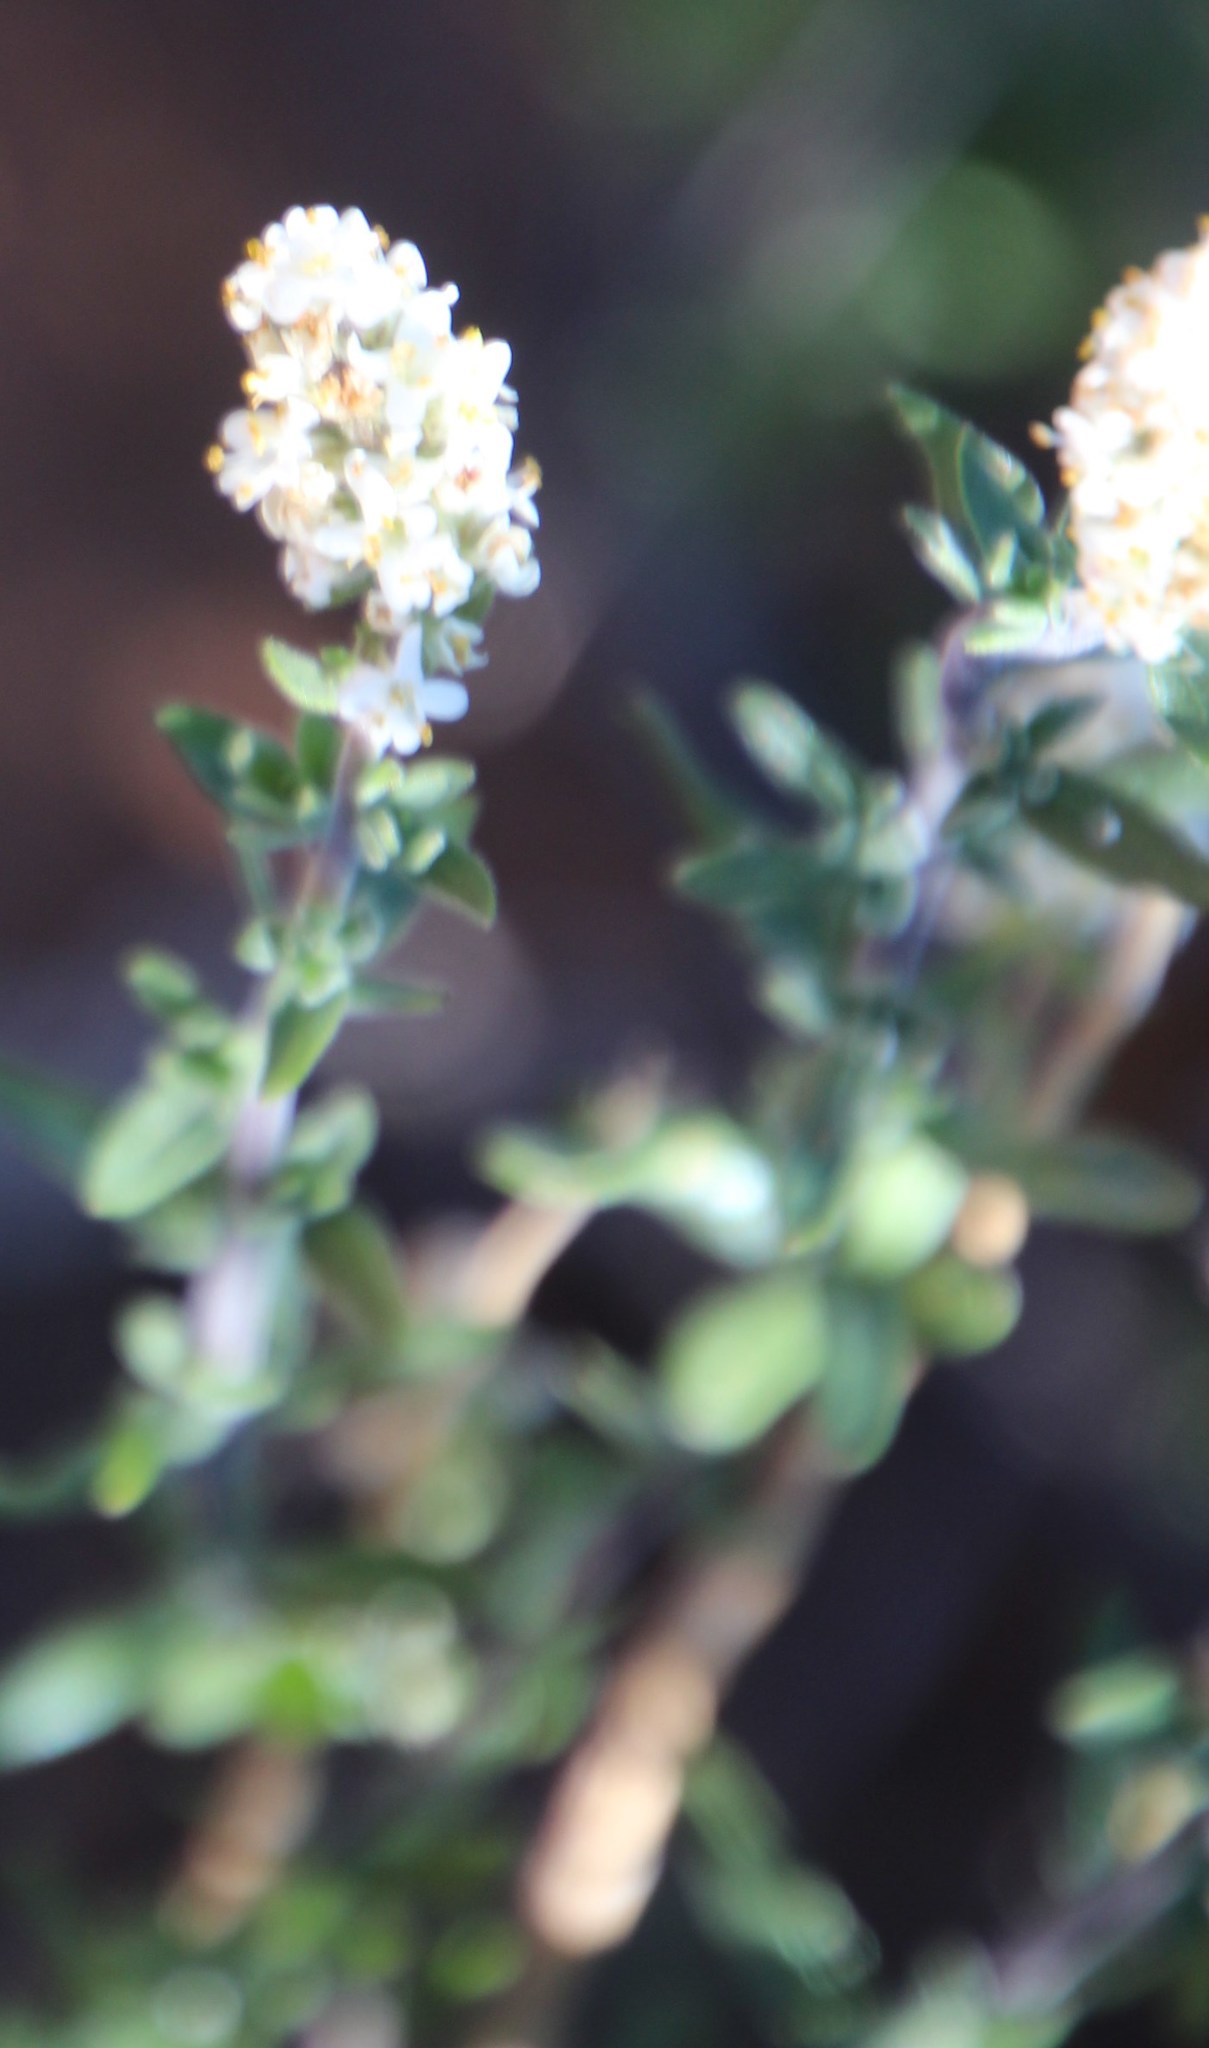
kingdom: Plantae
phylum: Tracheophyta
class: Magnoliopsida
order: Lamiales
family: Scrophulariaceae
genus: Selago
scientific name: Selago namaquensis
